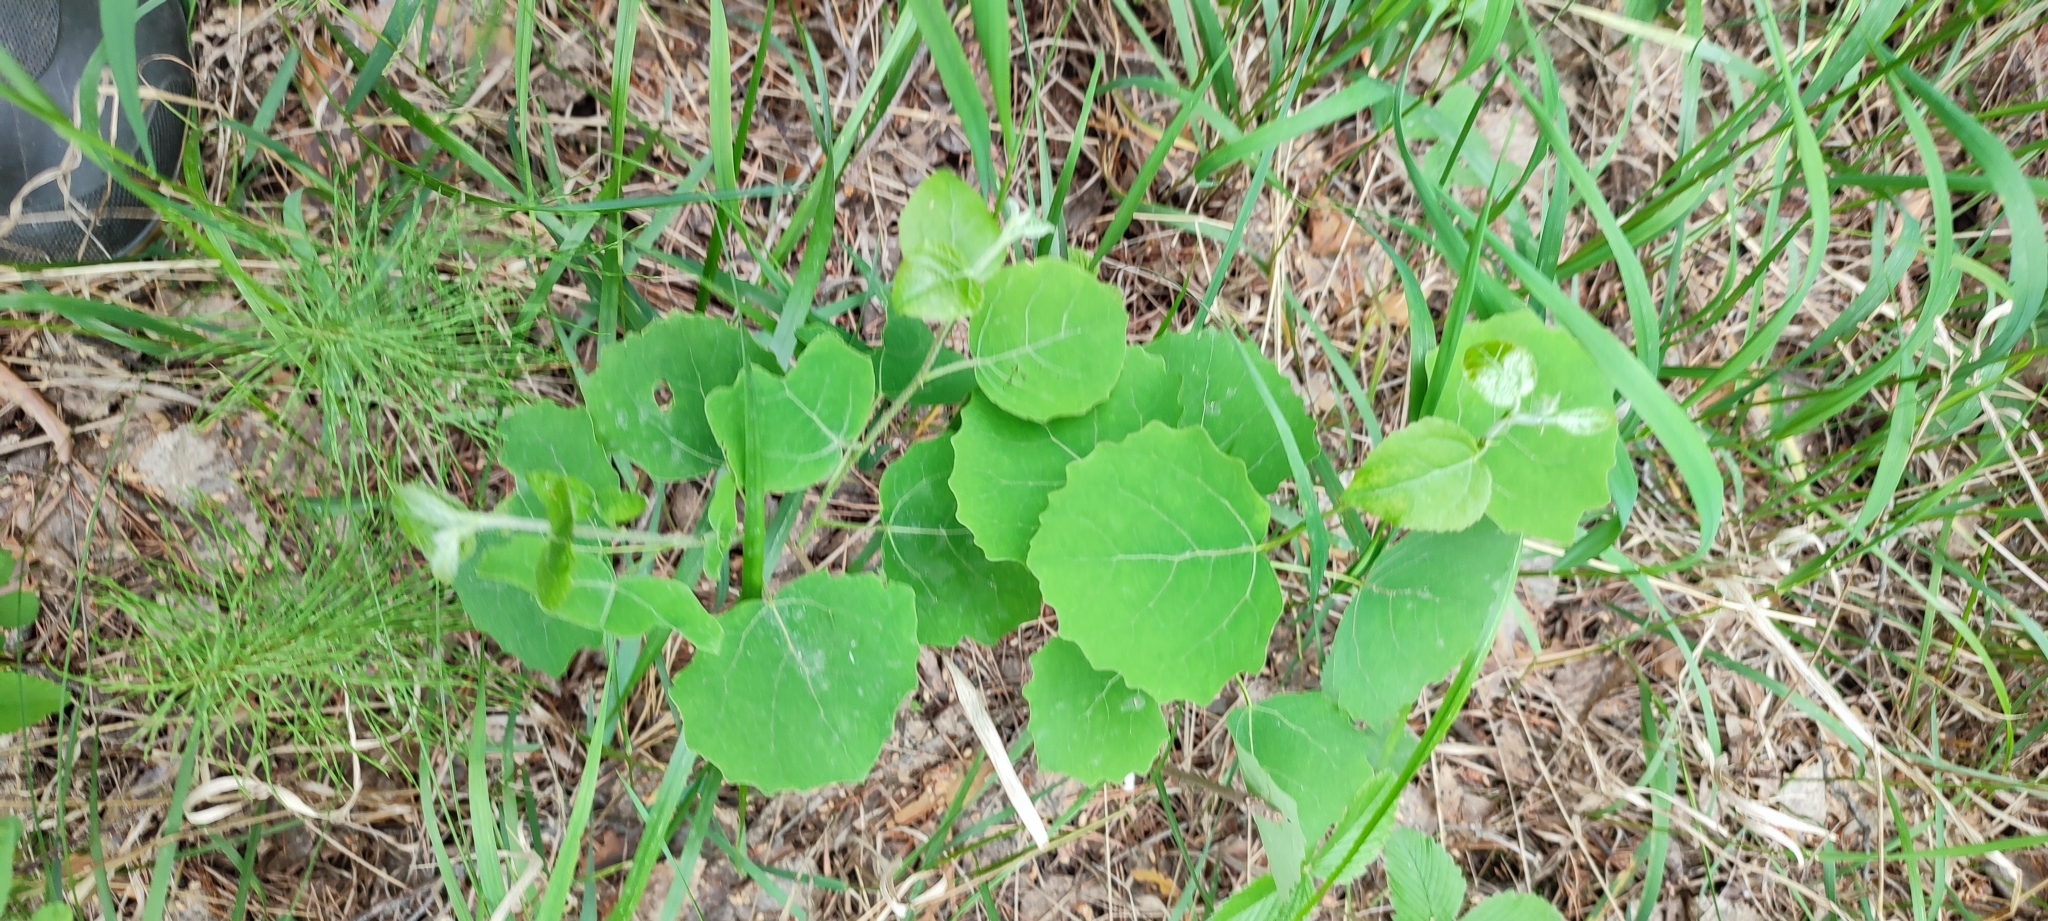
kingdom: Plantae
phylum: Tracheophyta
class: Magnoliopsida
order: Malpighiales
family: Salicaceae
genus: Populus
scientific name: Populus tremula
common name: European aspen
